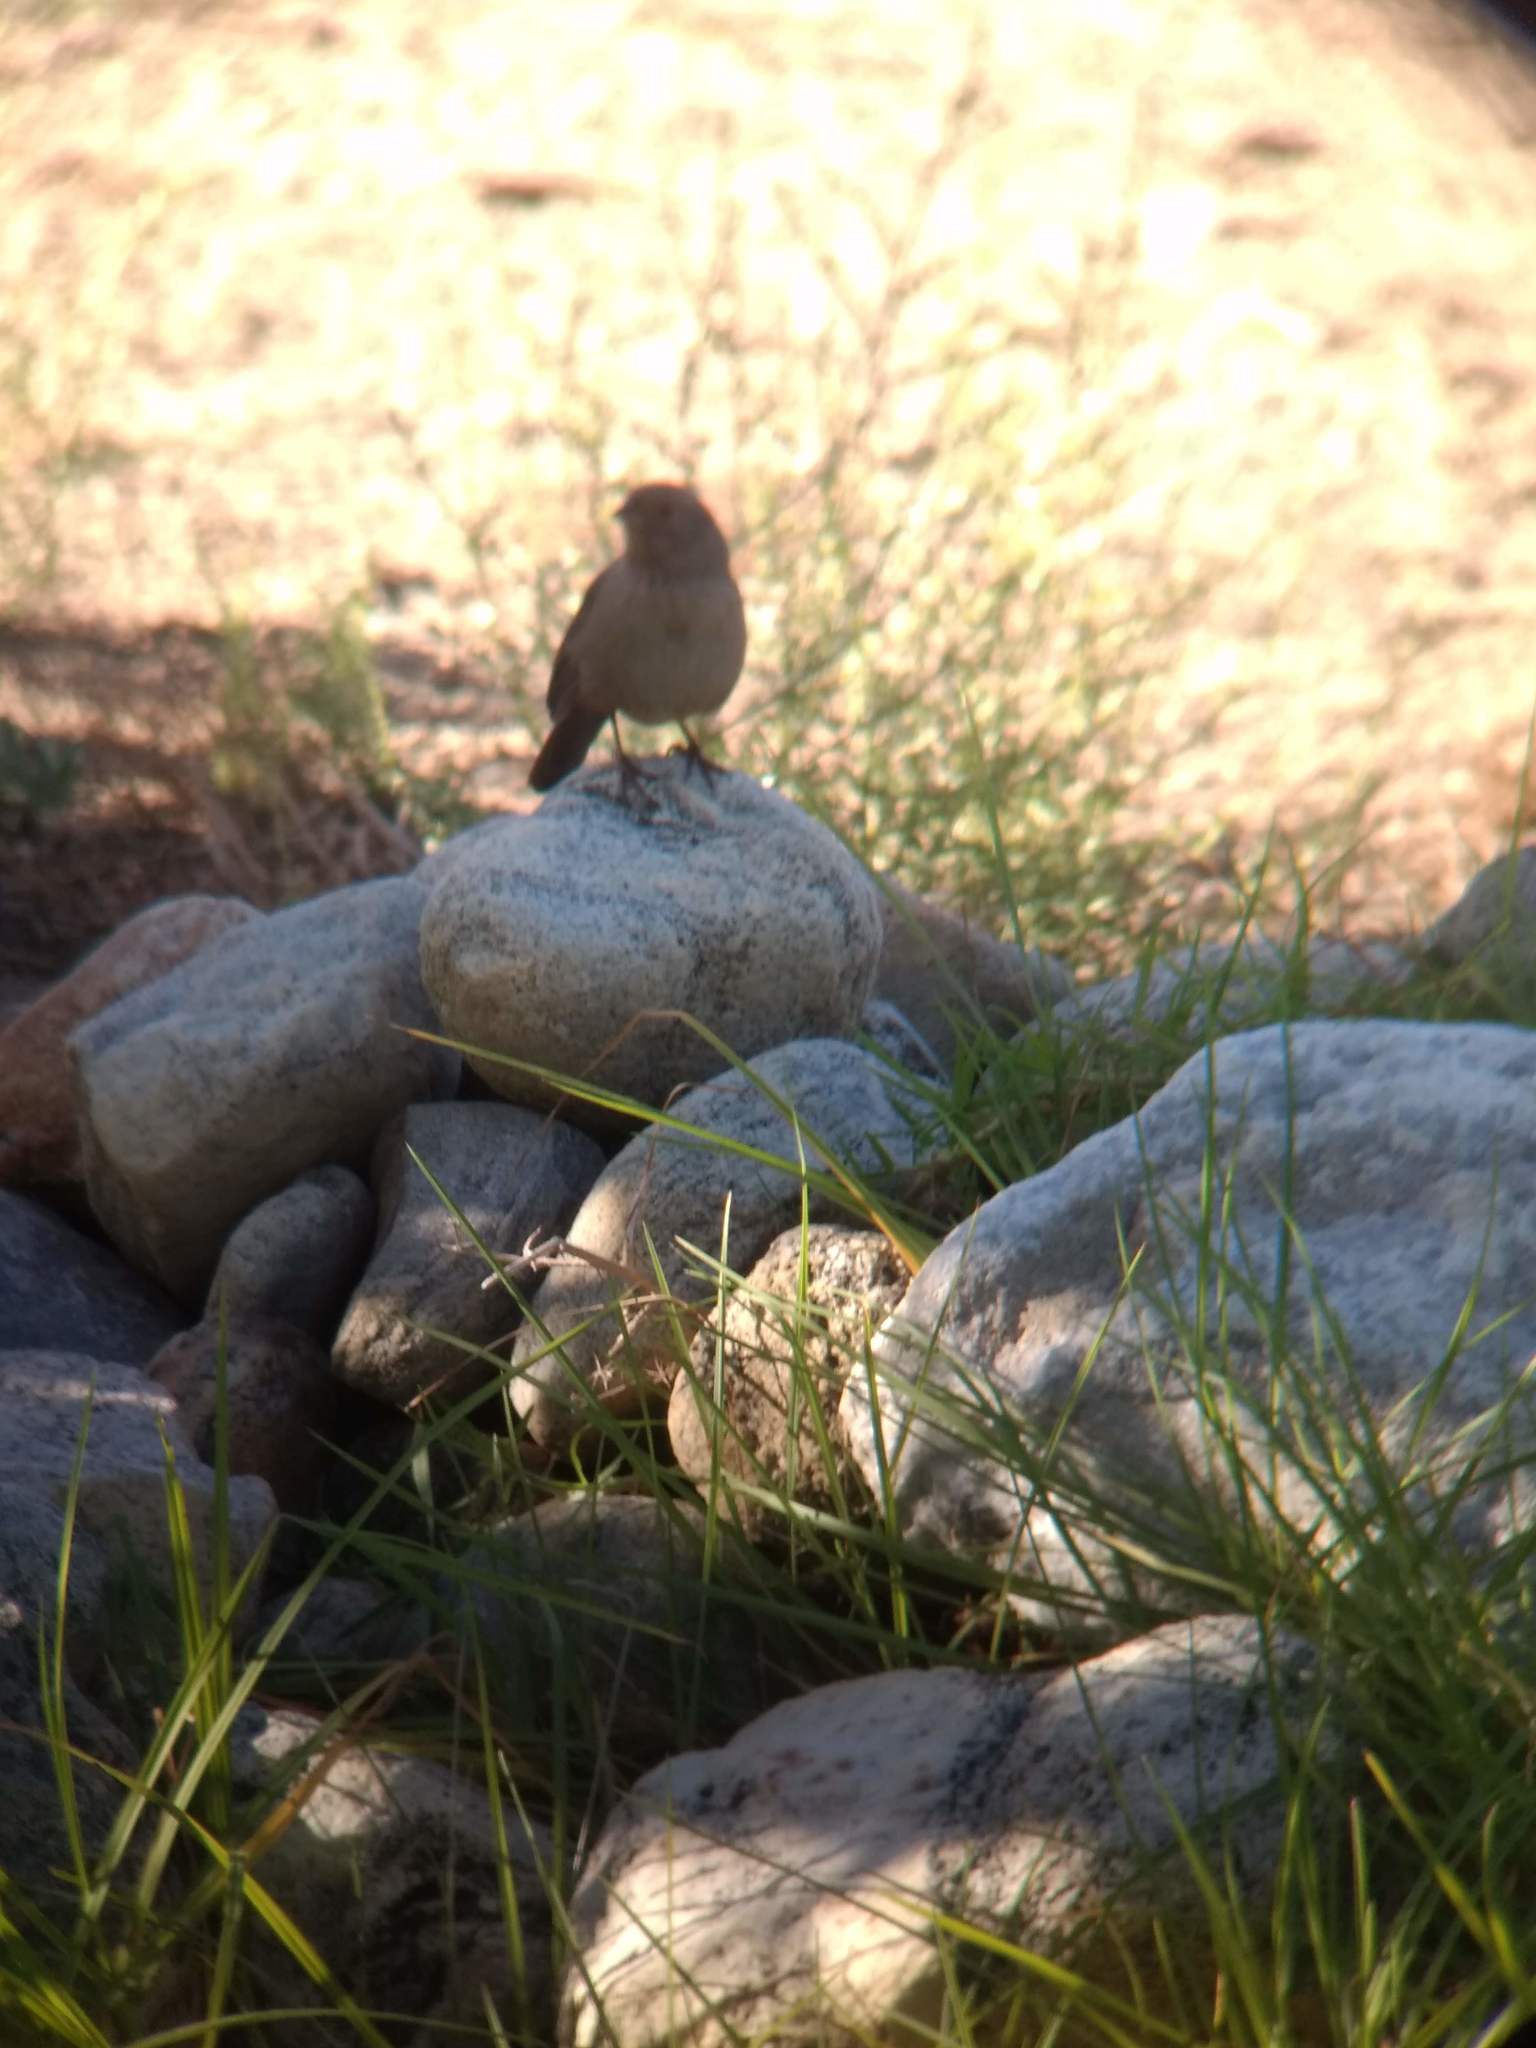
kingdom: Animalia
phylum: Chordata
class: Aves
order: Passeriformes
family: Passerellidae
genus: Melozone
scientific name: Melozone crissalis
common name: California towhee
